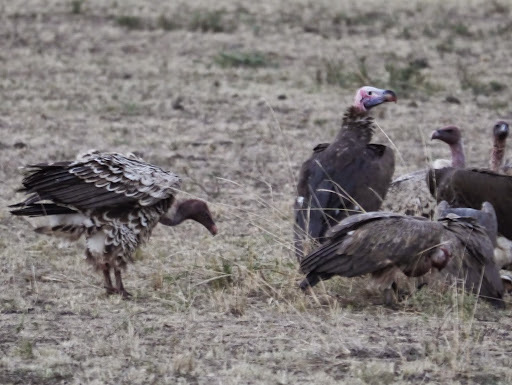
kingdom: Animalia
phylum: Chordata
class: Aves
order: Accipitriformes
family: Accipitridae
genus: Torgos
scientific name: Torgos tracheliotos
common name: Lappet-faced vulture
